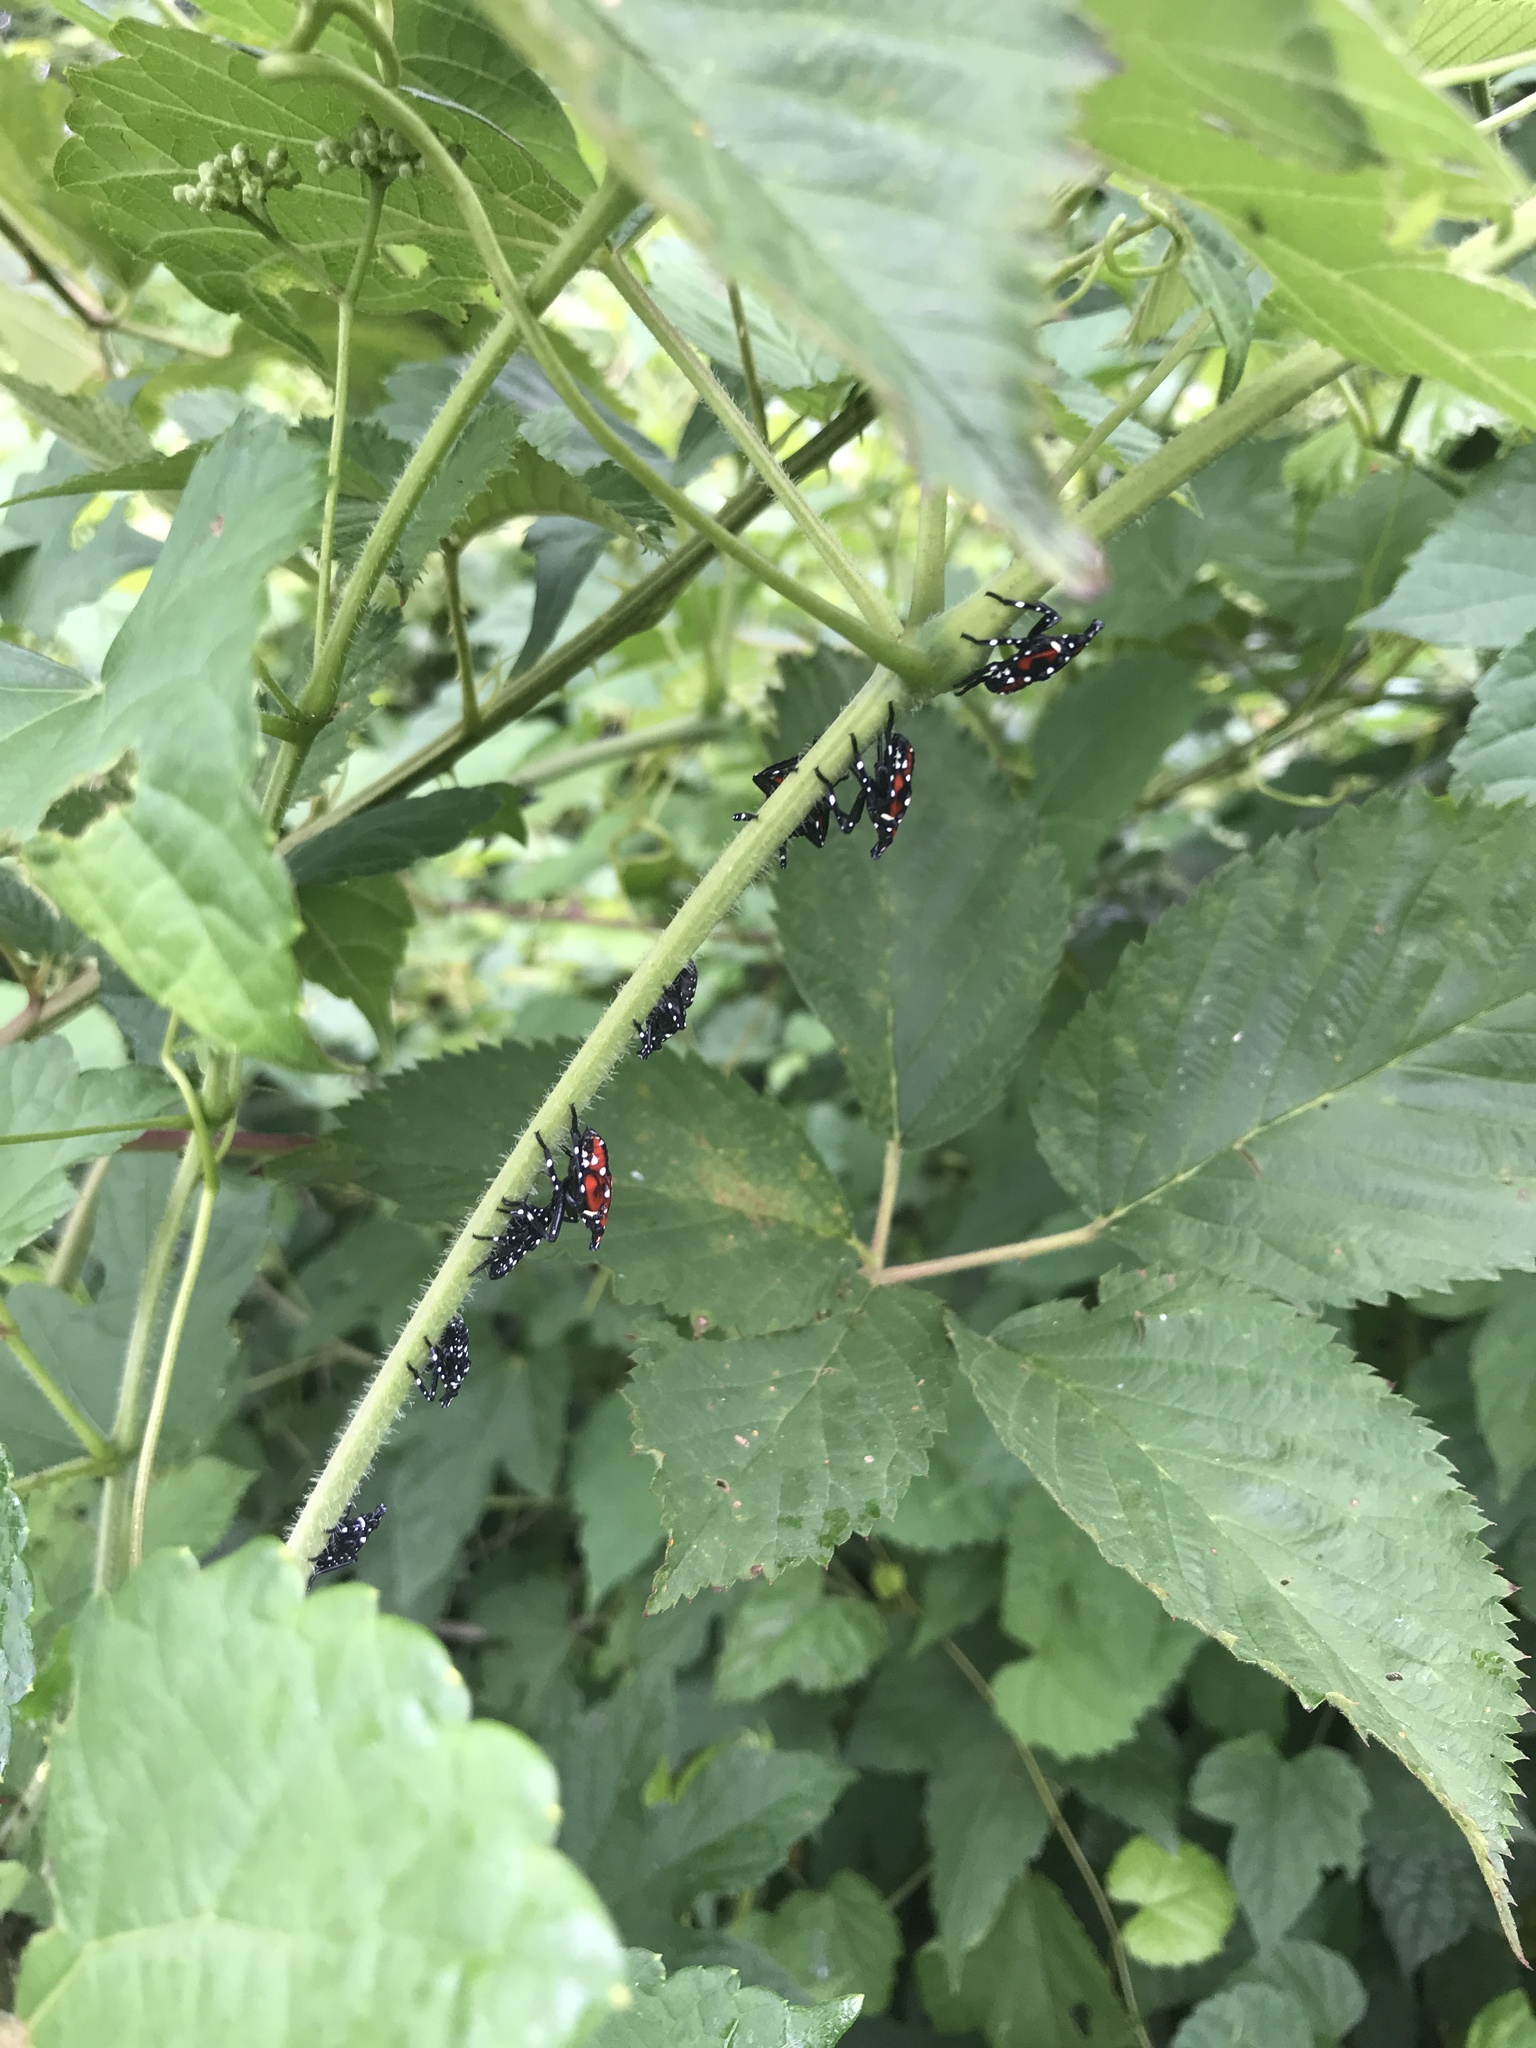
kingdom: Animalia
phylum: Arthropoda
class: Insecta
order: Hemiptera
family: Fulgoridae
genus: Lycorma
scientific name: Lycorma delicatula
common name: Spotted lanternfly
